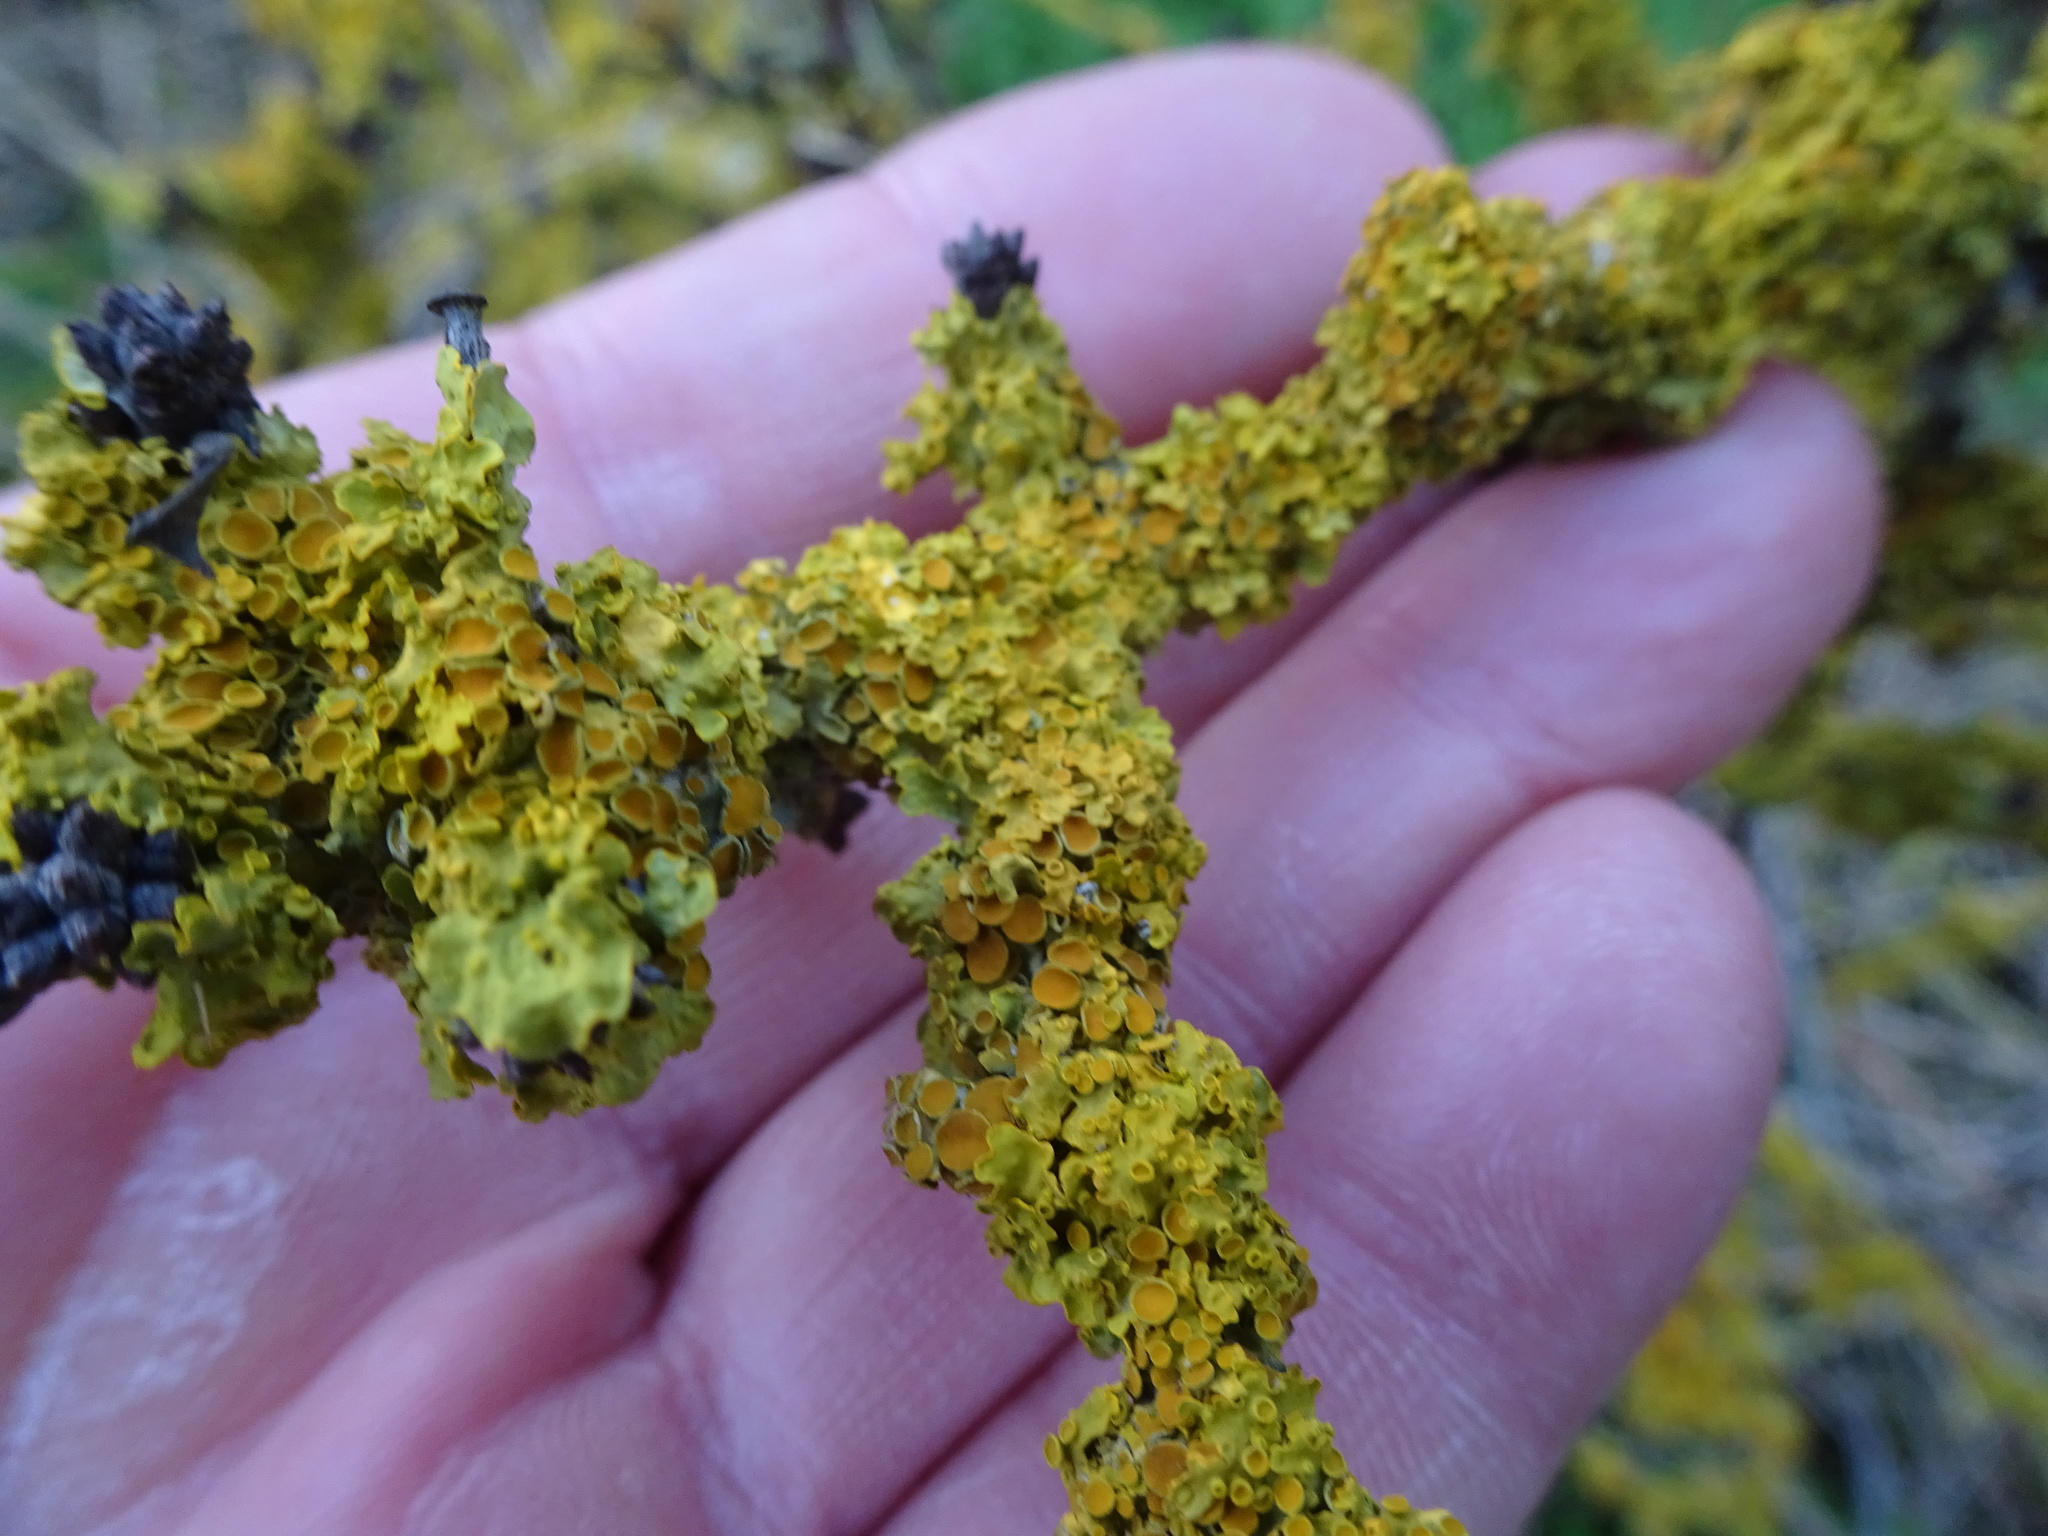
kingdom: Fungi
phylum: Ascomycota
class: Lecanoromycetes
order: Teloschistales
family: Teloschistaceae
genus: Xanthoria
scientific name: Xanthoria parietina
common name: Common orange lichen
